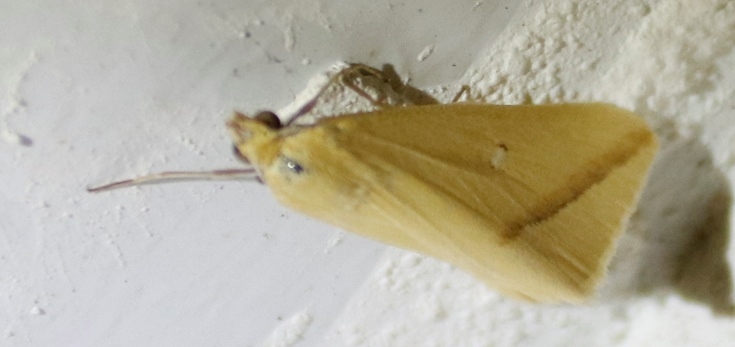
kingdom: Animalia
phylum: Arthropoda
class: Insecta
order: Lepidoptera
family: Geometridae
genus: Rhodometra
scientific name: Rhodometra sacraria
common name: Vestal
